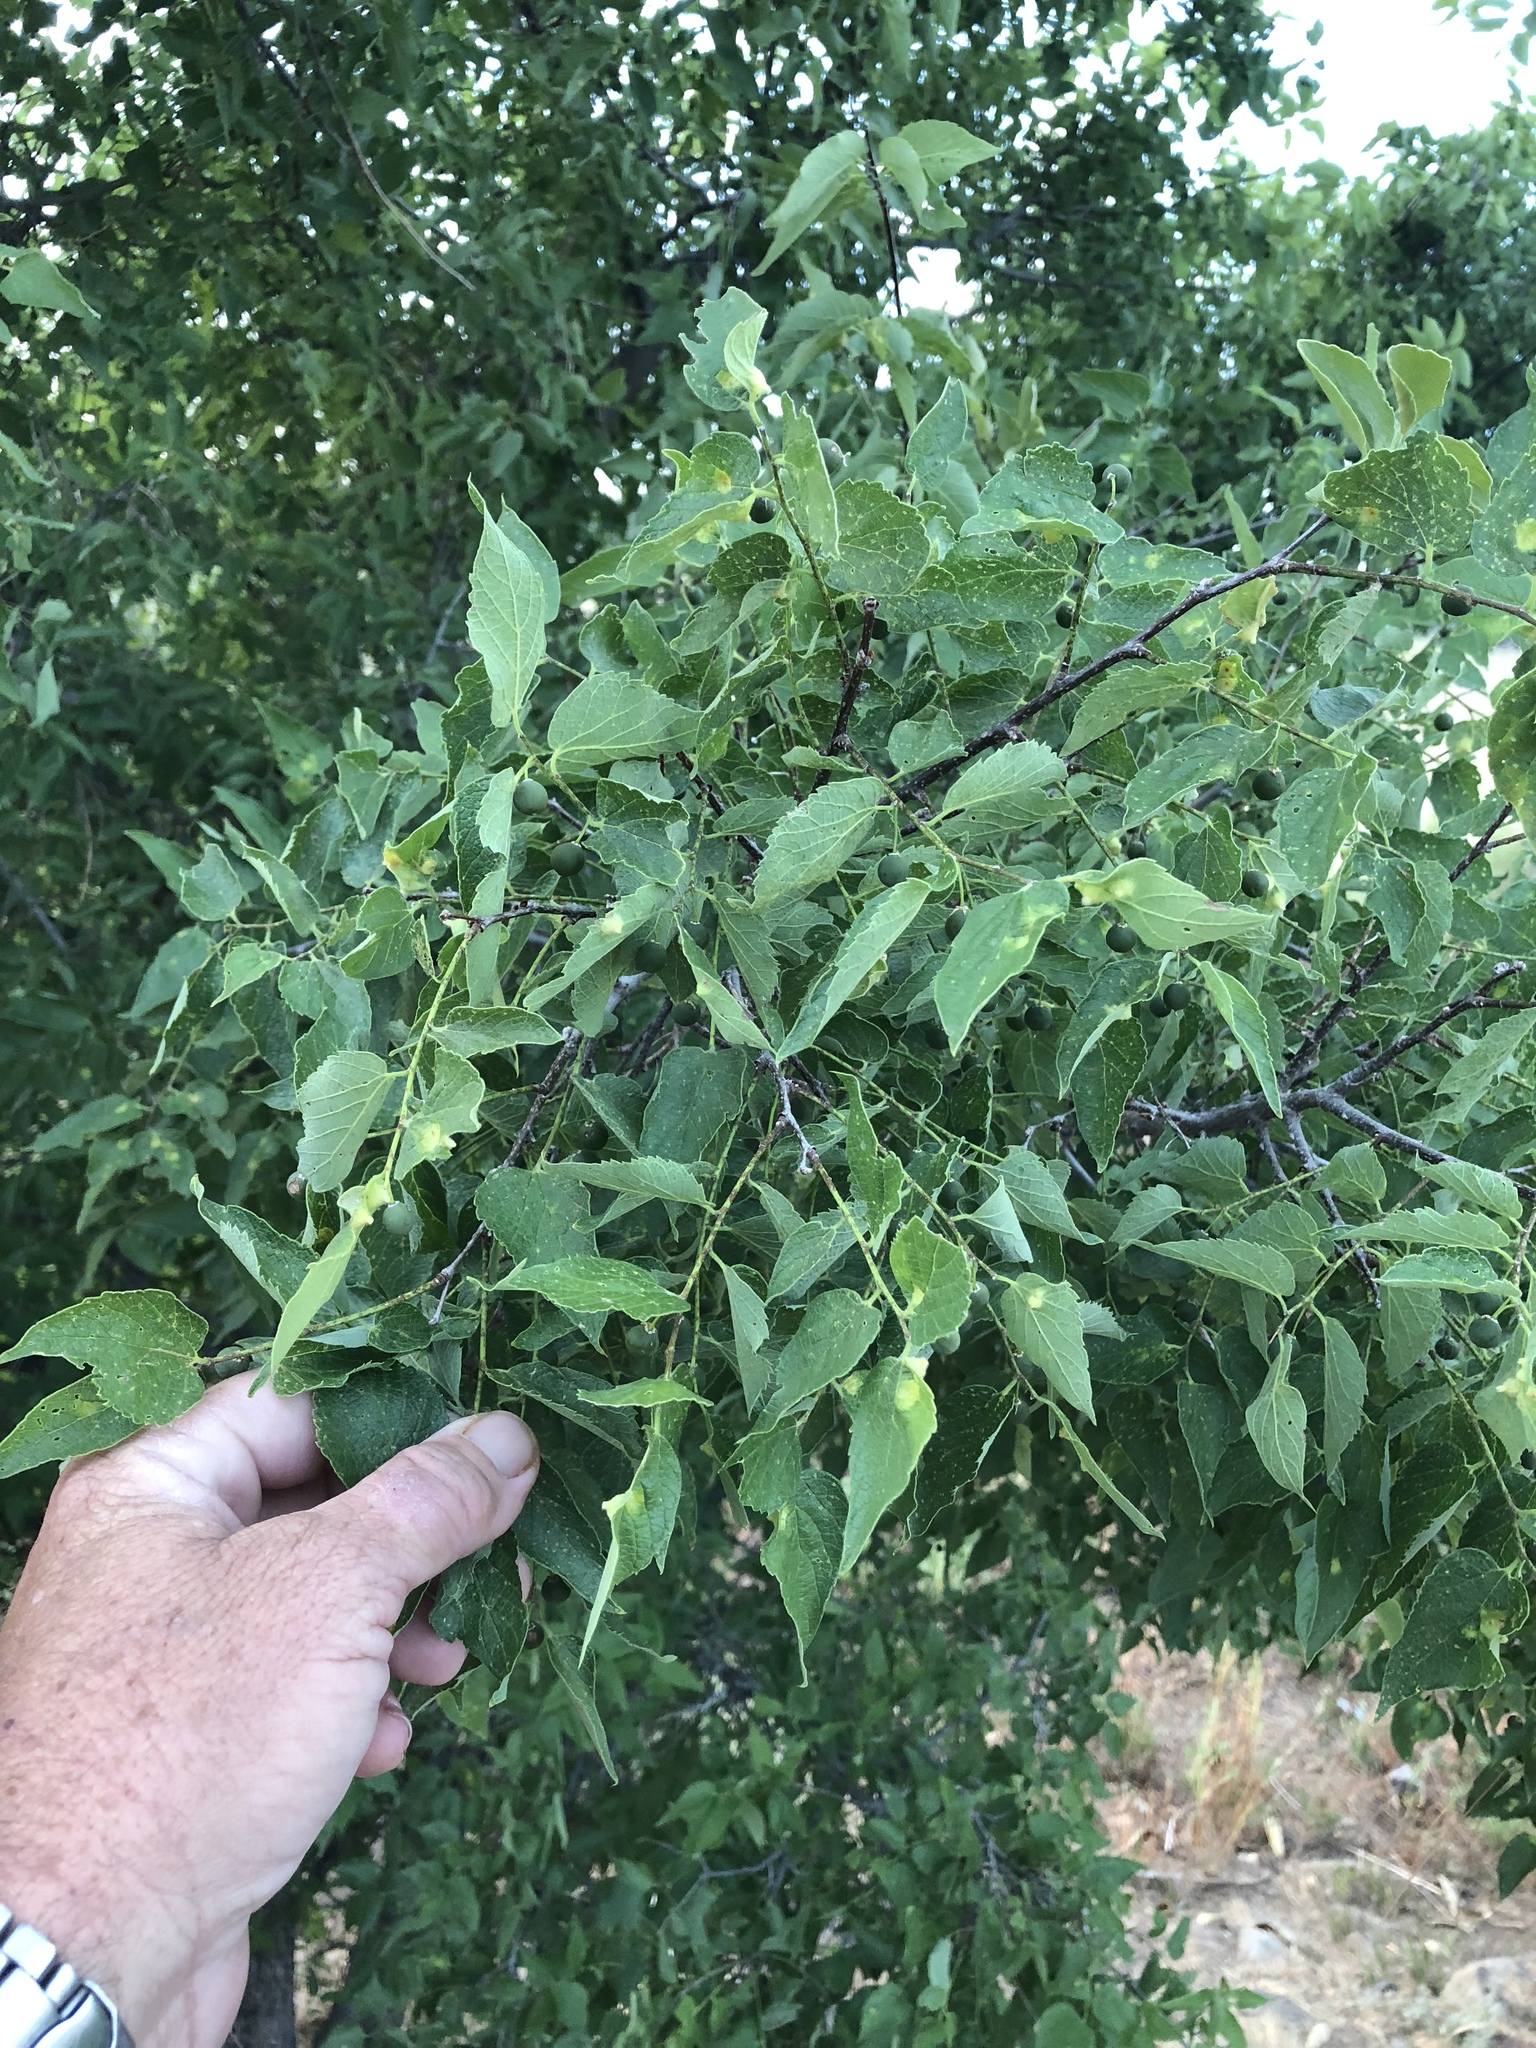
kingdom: Plantae
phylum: Tracheophyta
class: Magnoliopsida
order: Rosales
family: Cannabaceae
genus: Celtis
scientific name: Celtis occidentalis
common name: Common hackberry
